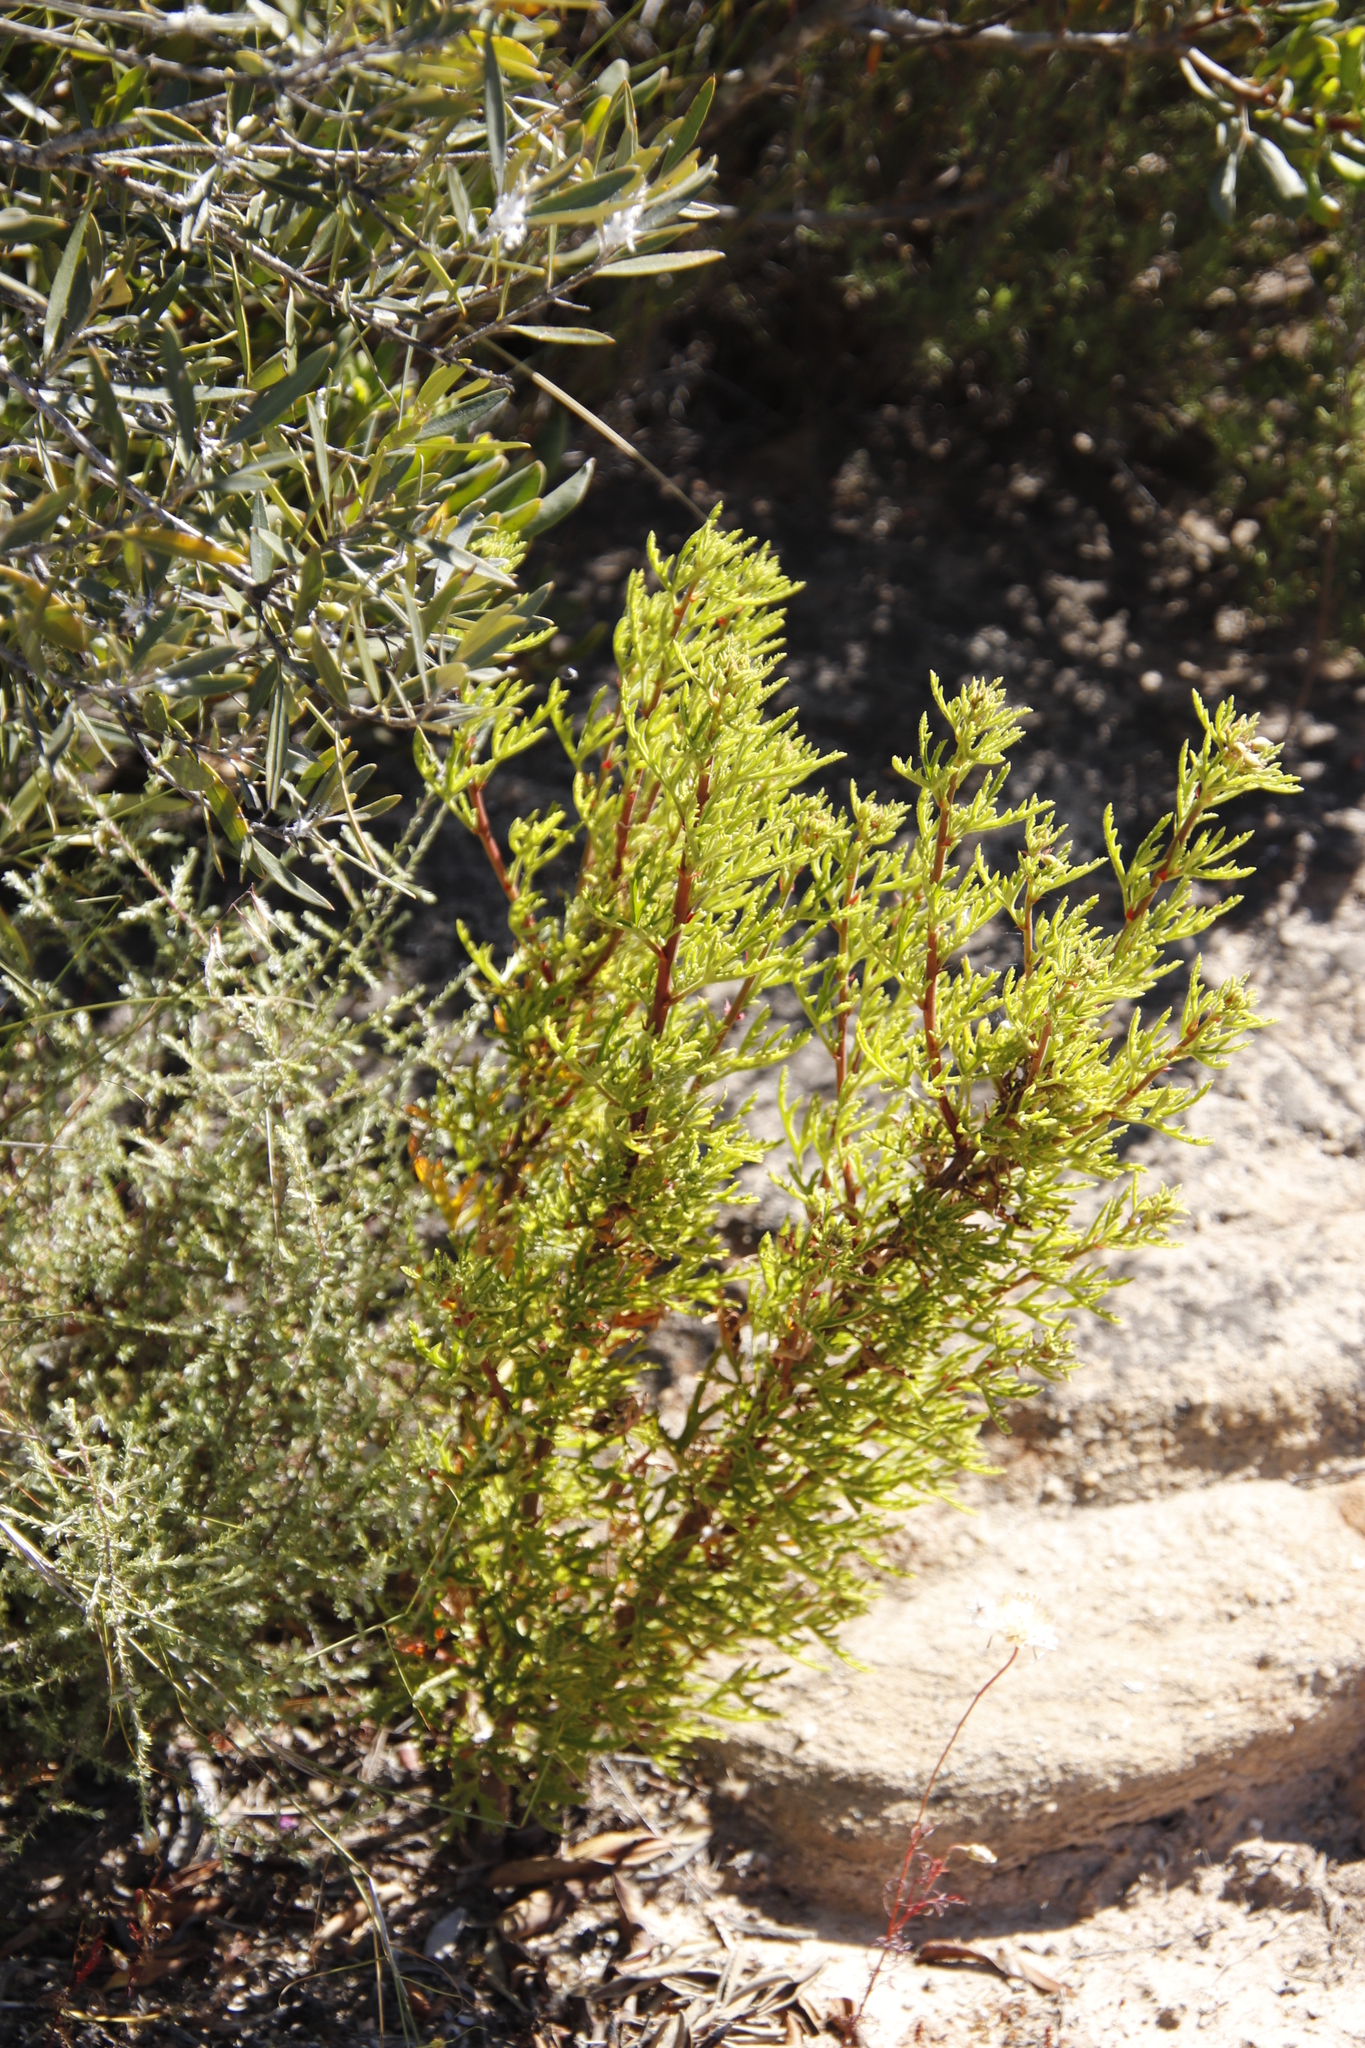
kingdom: Plantae
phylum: Tracheophyta
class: Magnoliopsida
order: Geraniales
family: Geraniaceae
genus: Pelargonium
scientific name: Pelargonium scabrum
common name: Apricot geranium
